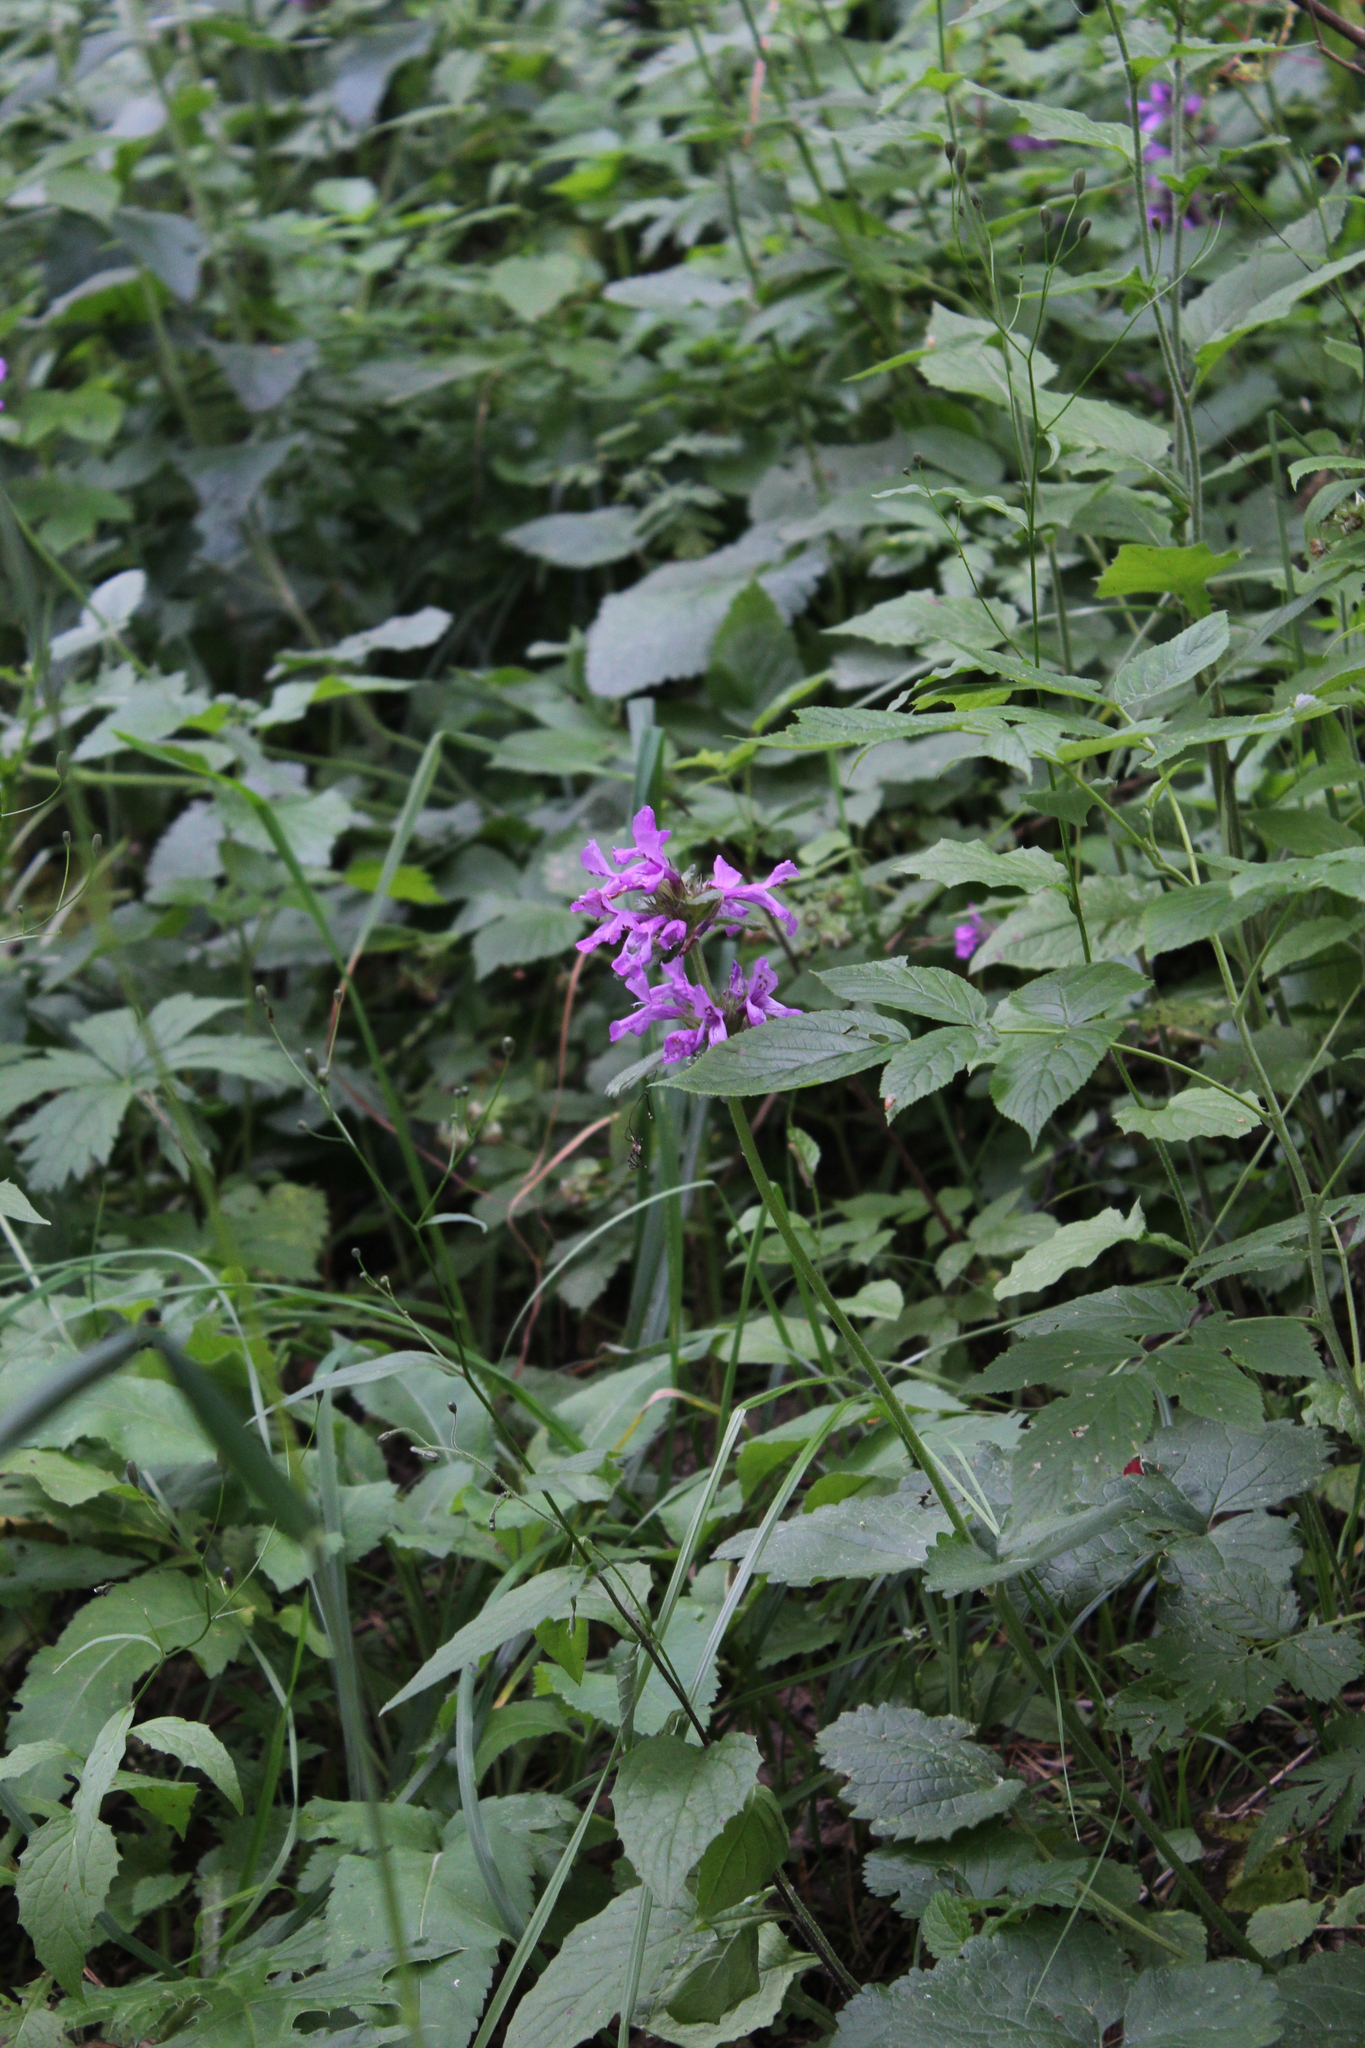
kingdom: Plantae
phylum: Tracheophyta
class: Magnoliopsida
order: Lamiales
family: Lamiaceae
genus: Betonica
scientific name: Betonica macrantha
